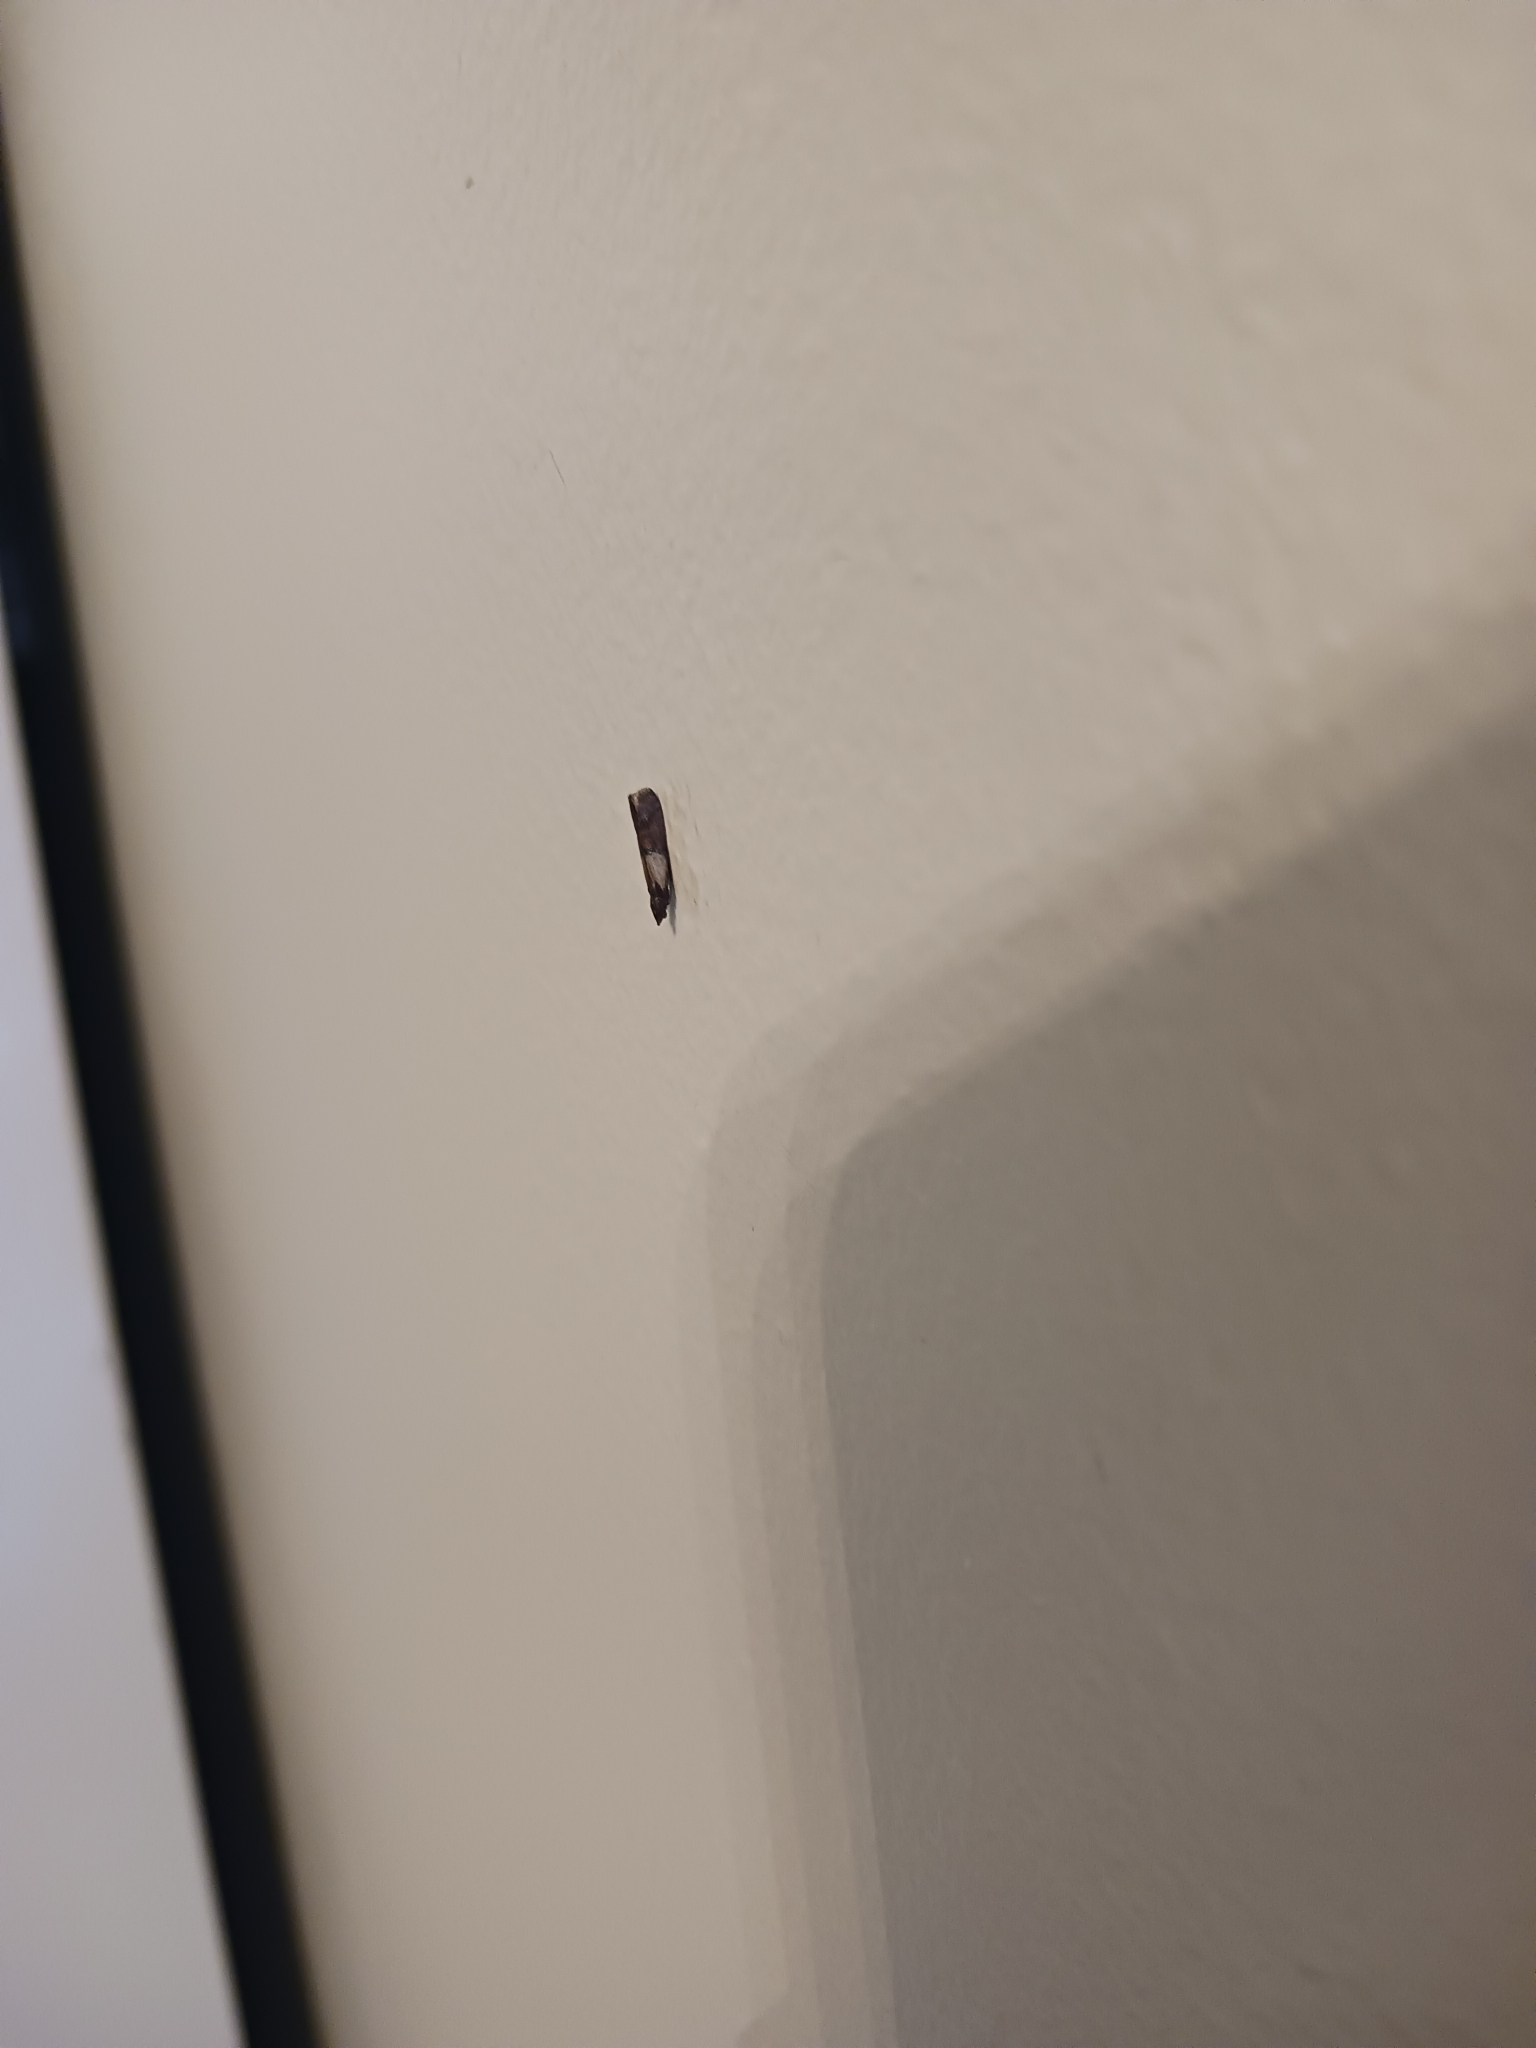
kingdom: Animalia
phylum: Arthropoda
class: Insecta
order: Lepidoptera
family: Pyralidae
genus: Plodia
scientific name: Plodia interpunctella
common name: Indian meal moth
